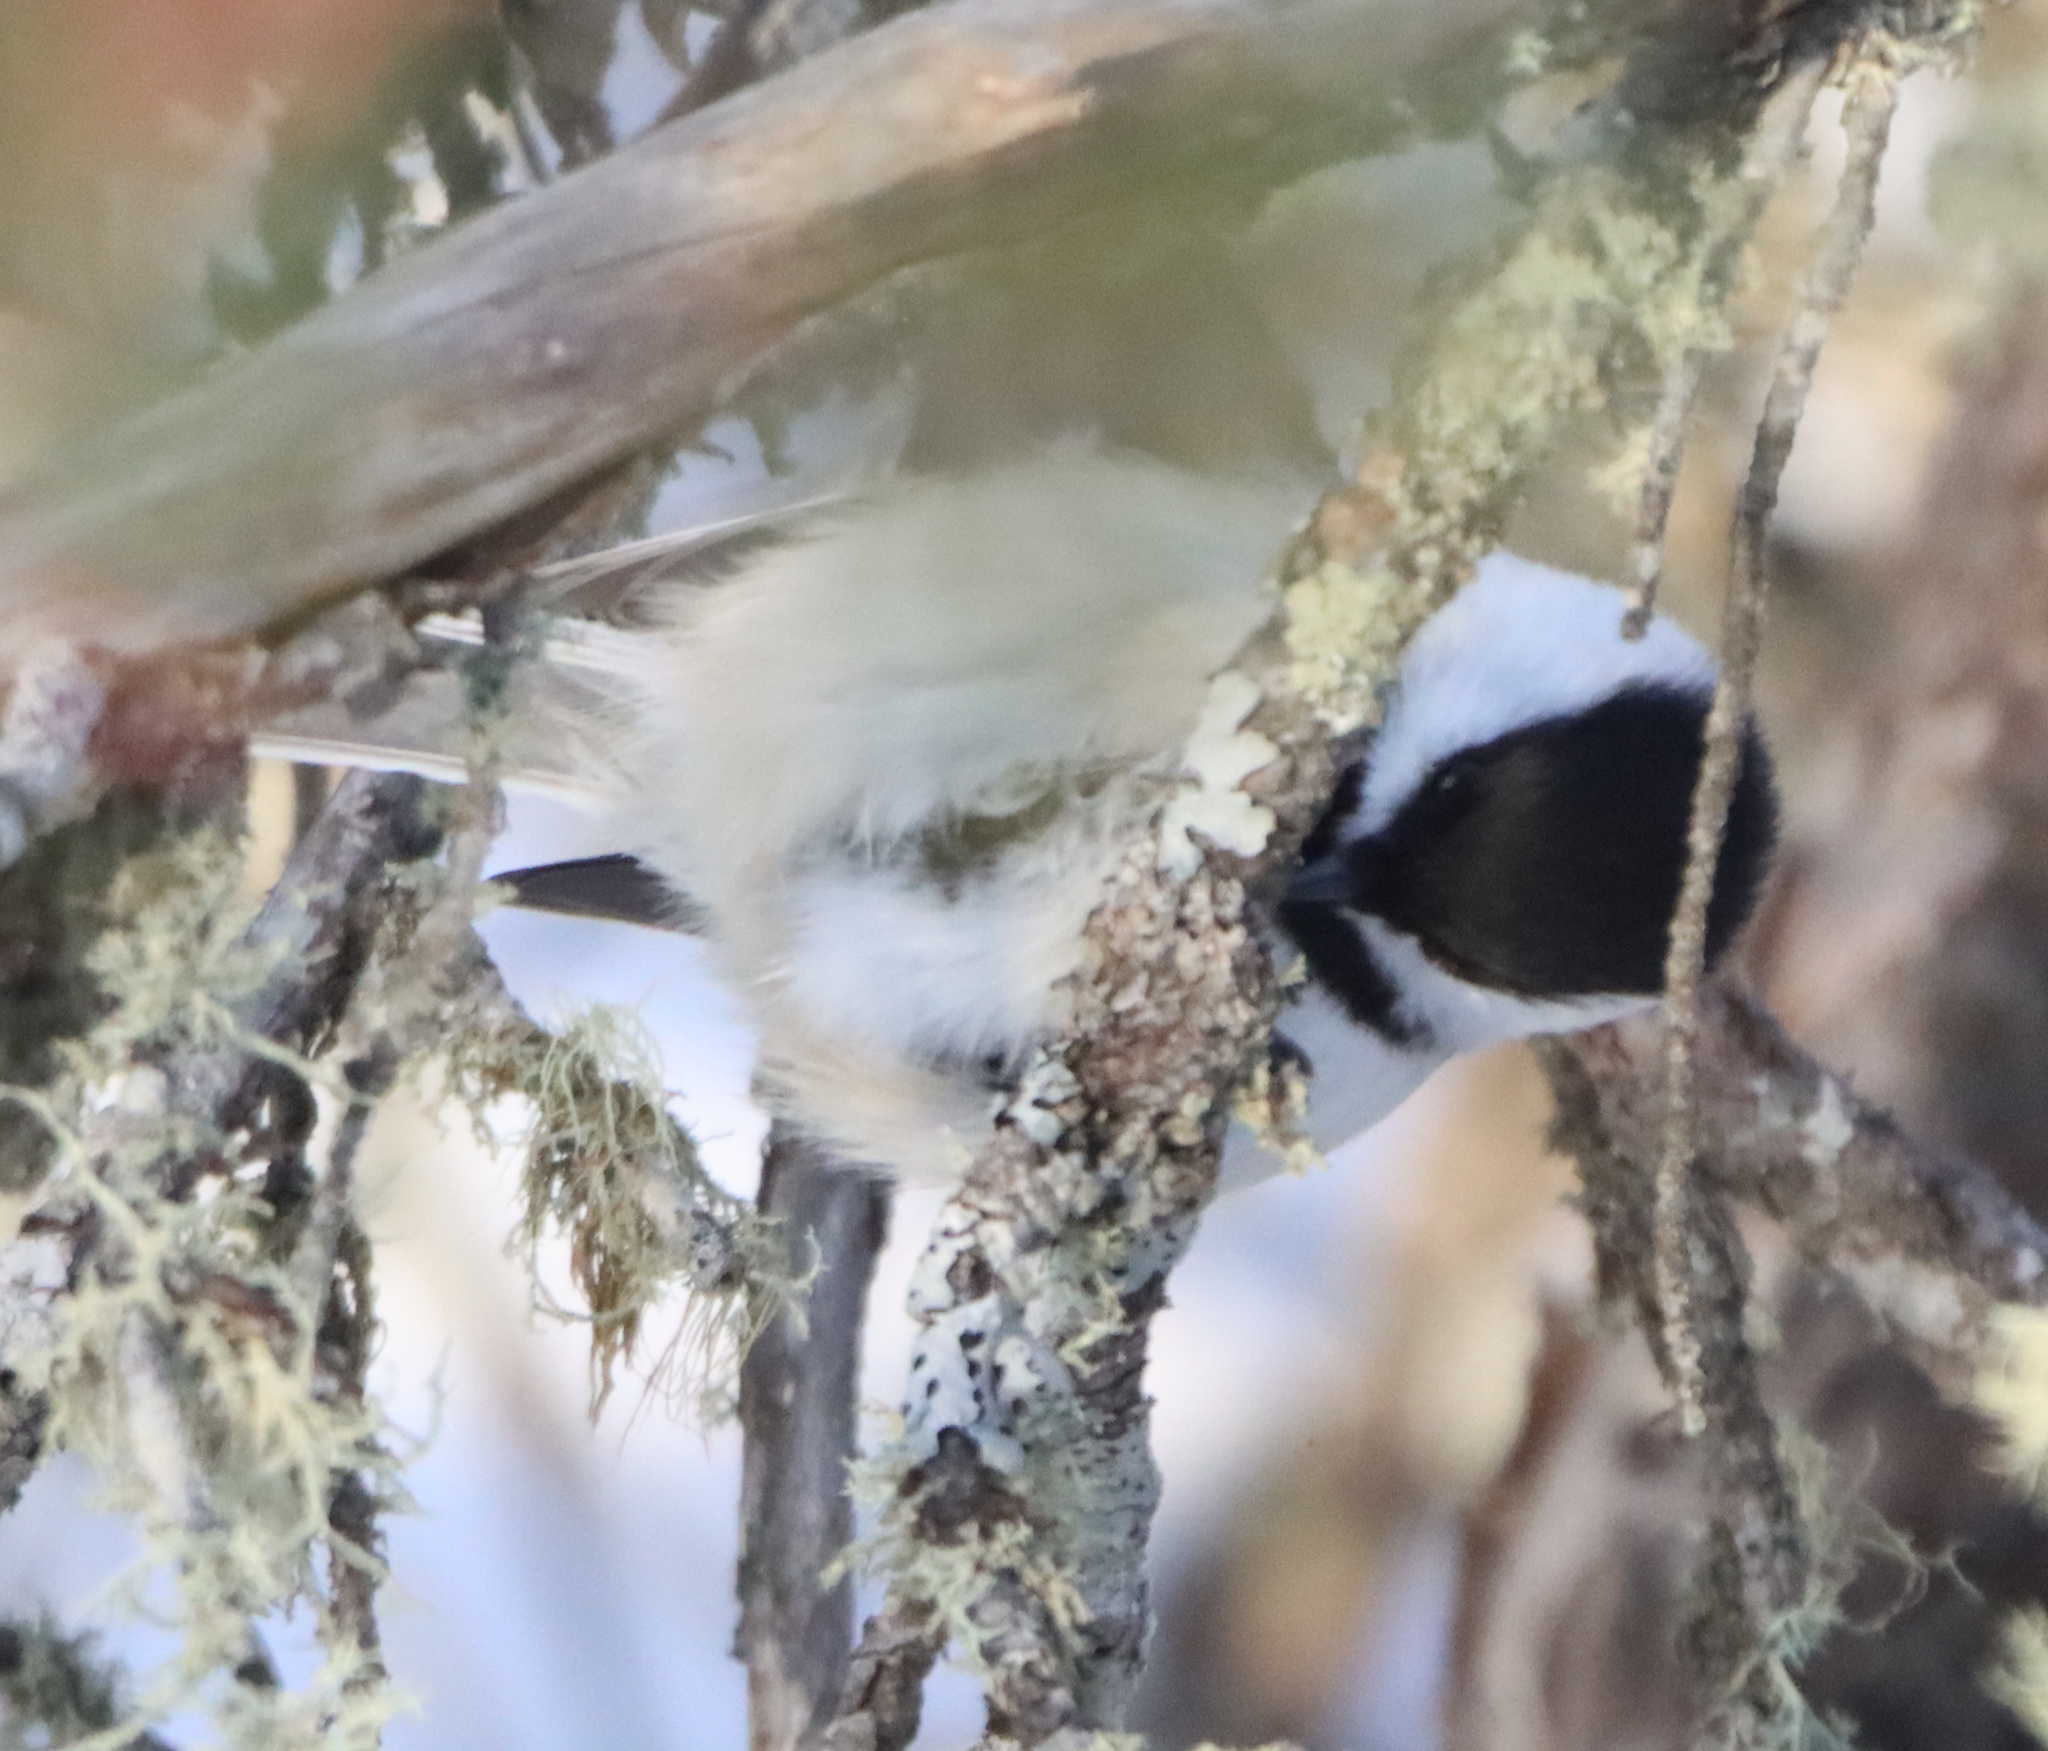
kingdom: Animalia
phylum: Chordata
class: Aves
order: Passeriformes
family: Paridae
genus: Poecile
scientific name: Poecile atricapillus
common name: Black-capped chickadee
